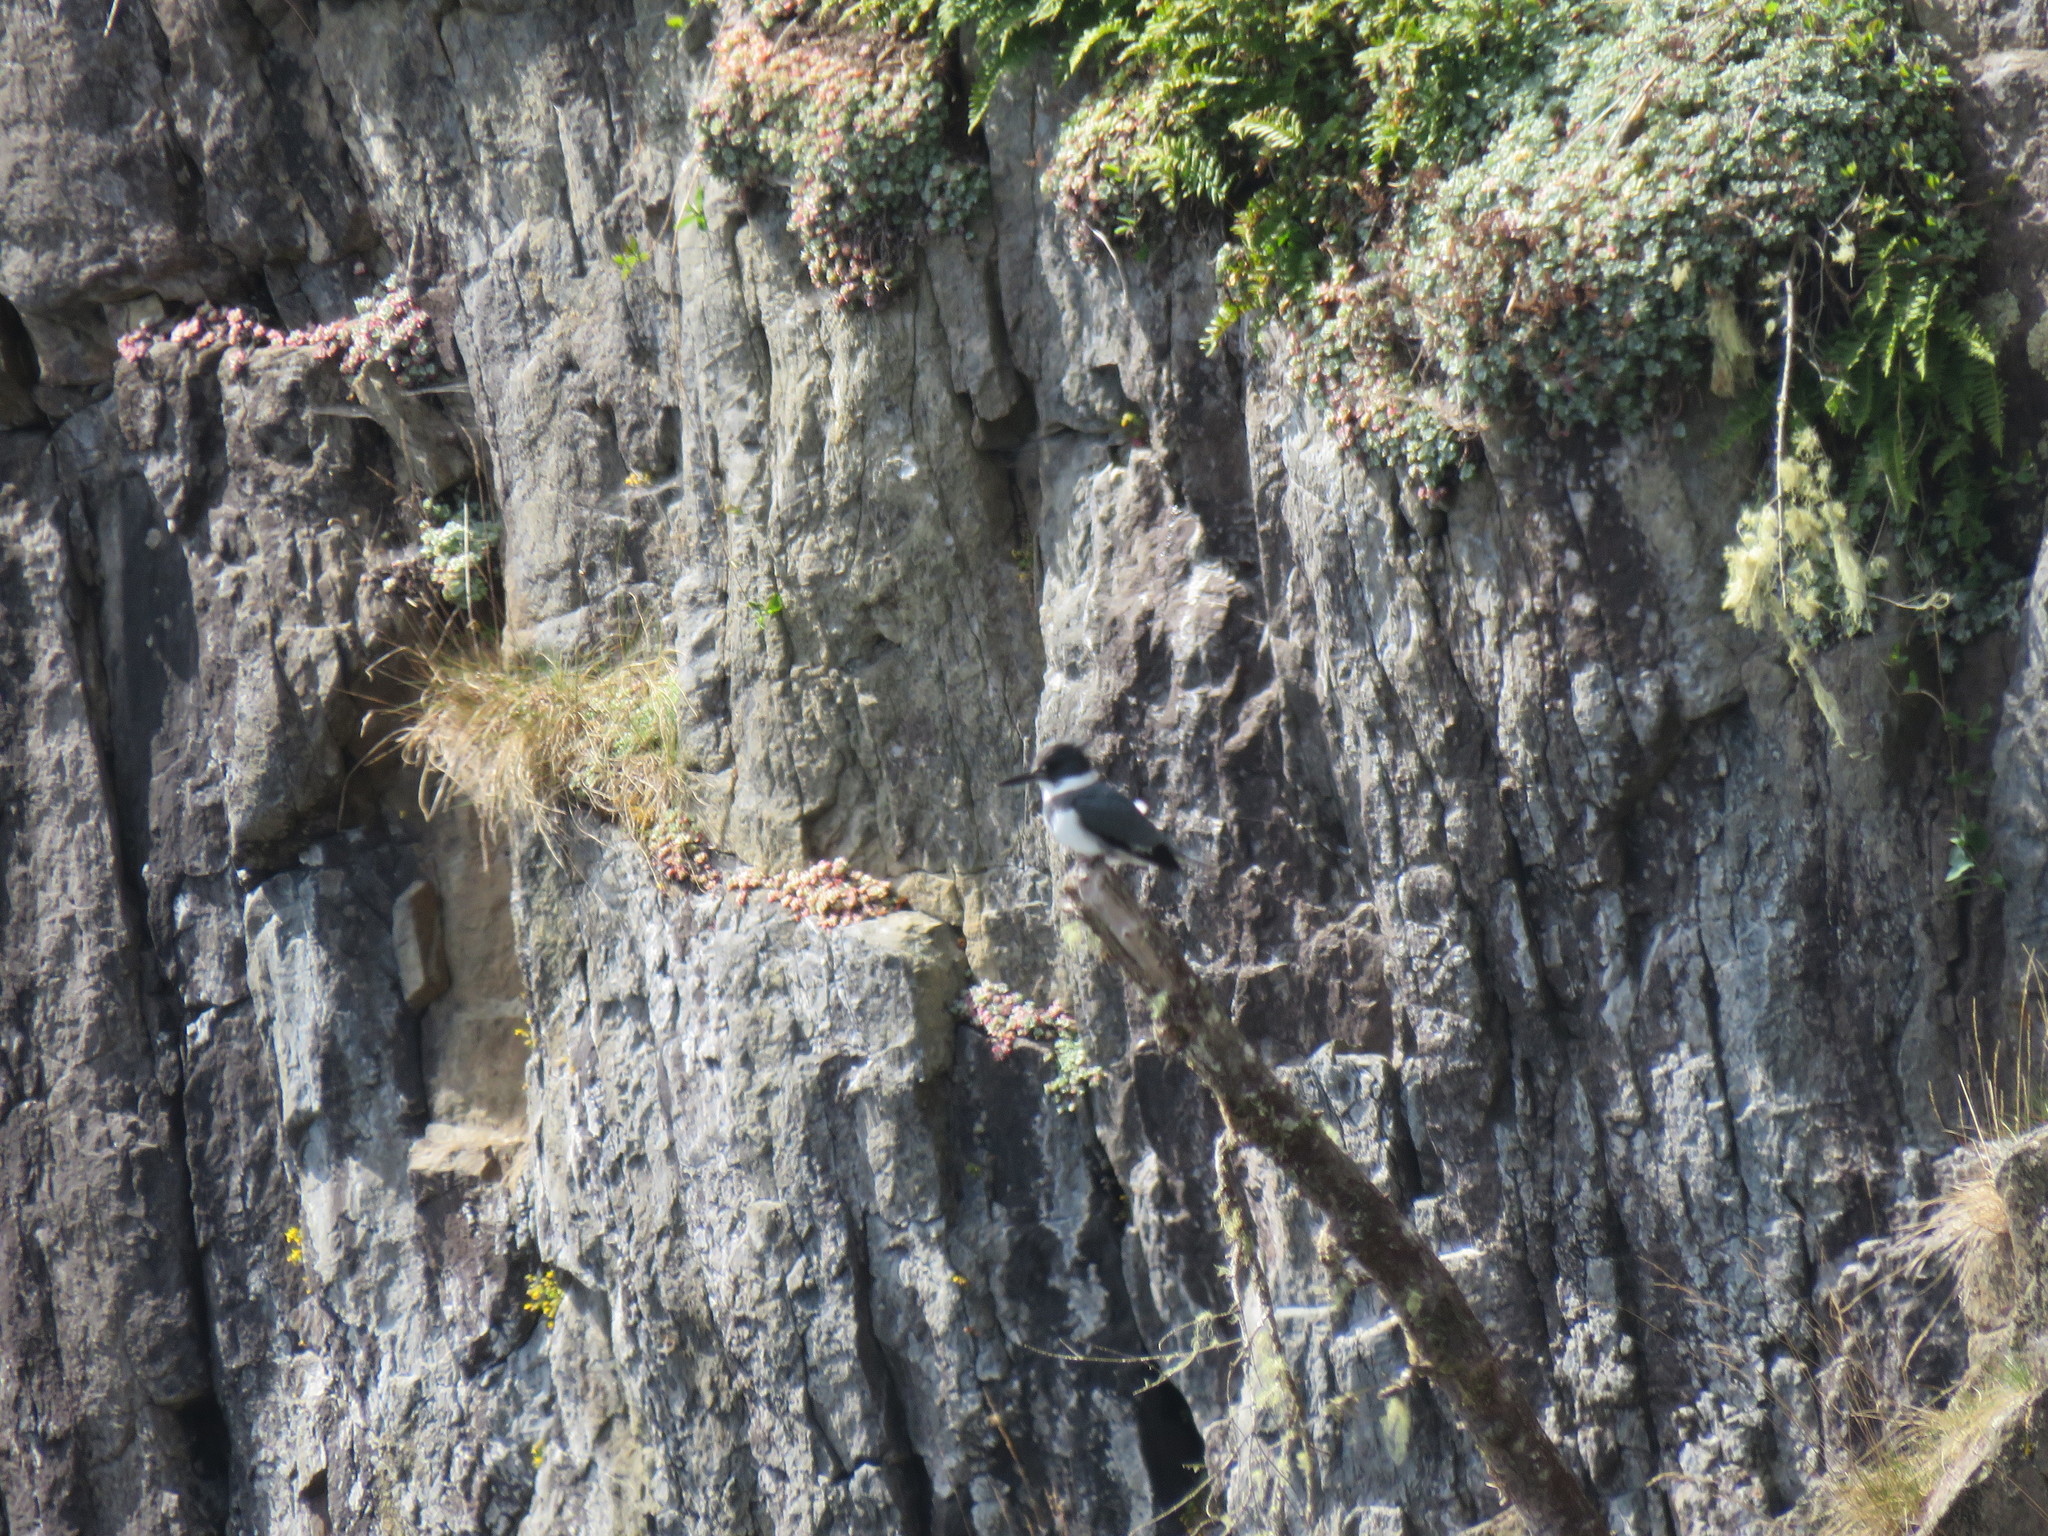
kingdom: Animalia
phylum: Chordata
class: Aves
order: Coraciiformes
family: Alcedinidae
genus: Megaceryle
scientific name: Megaceryle alcyon
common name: Belted kingfisher
